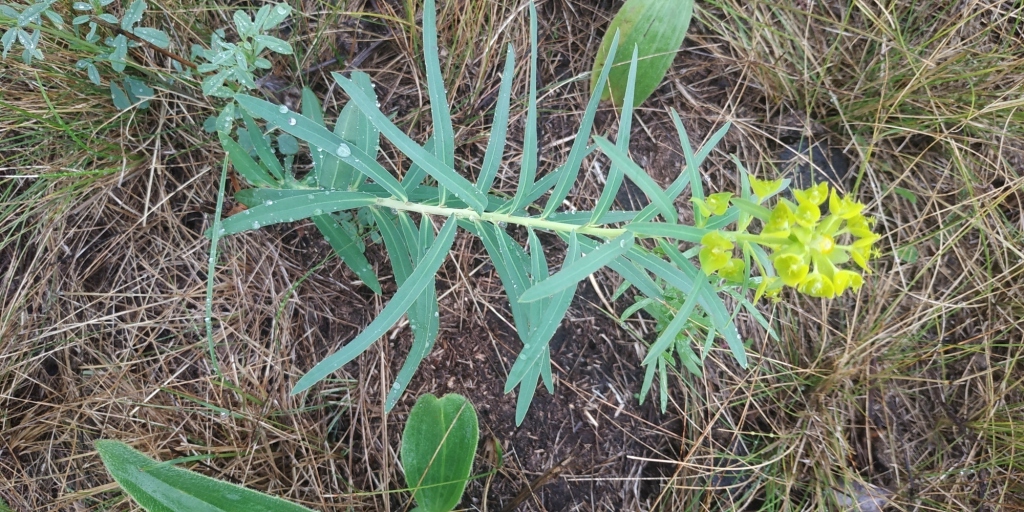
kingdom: Plantae
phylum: Tracheophyta
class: Magnoliopsida
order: Malpighiales
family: Euphorbiaceae
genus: Euphorbia
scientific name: Euphorbia virgata
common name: Leafy spurge
